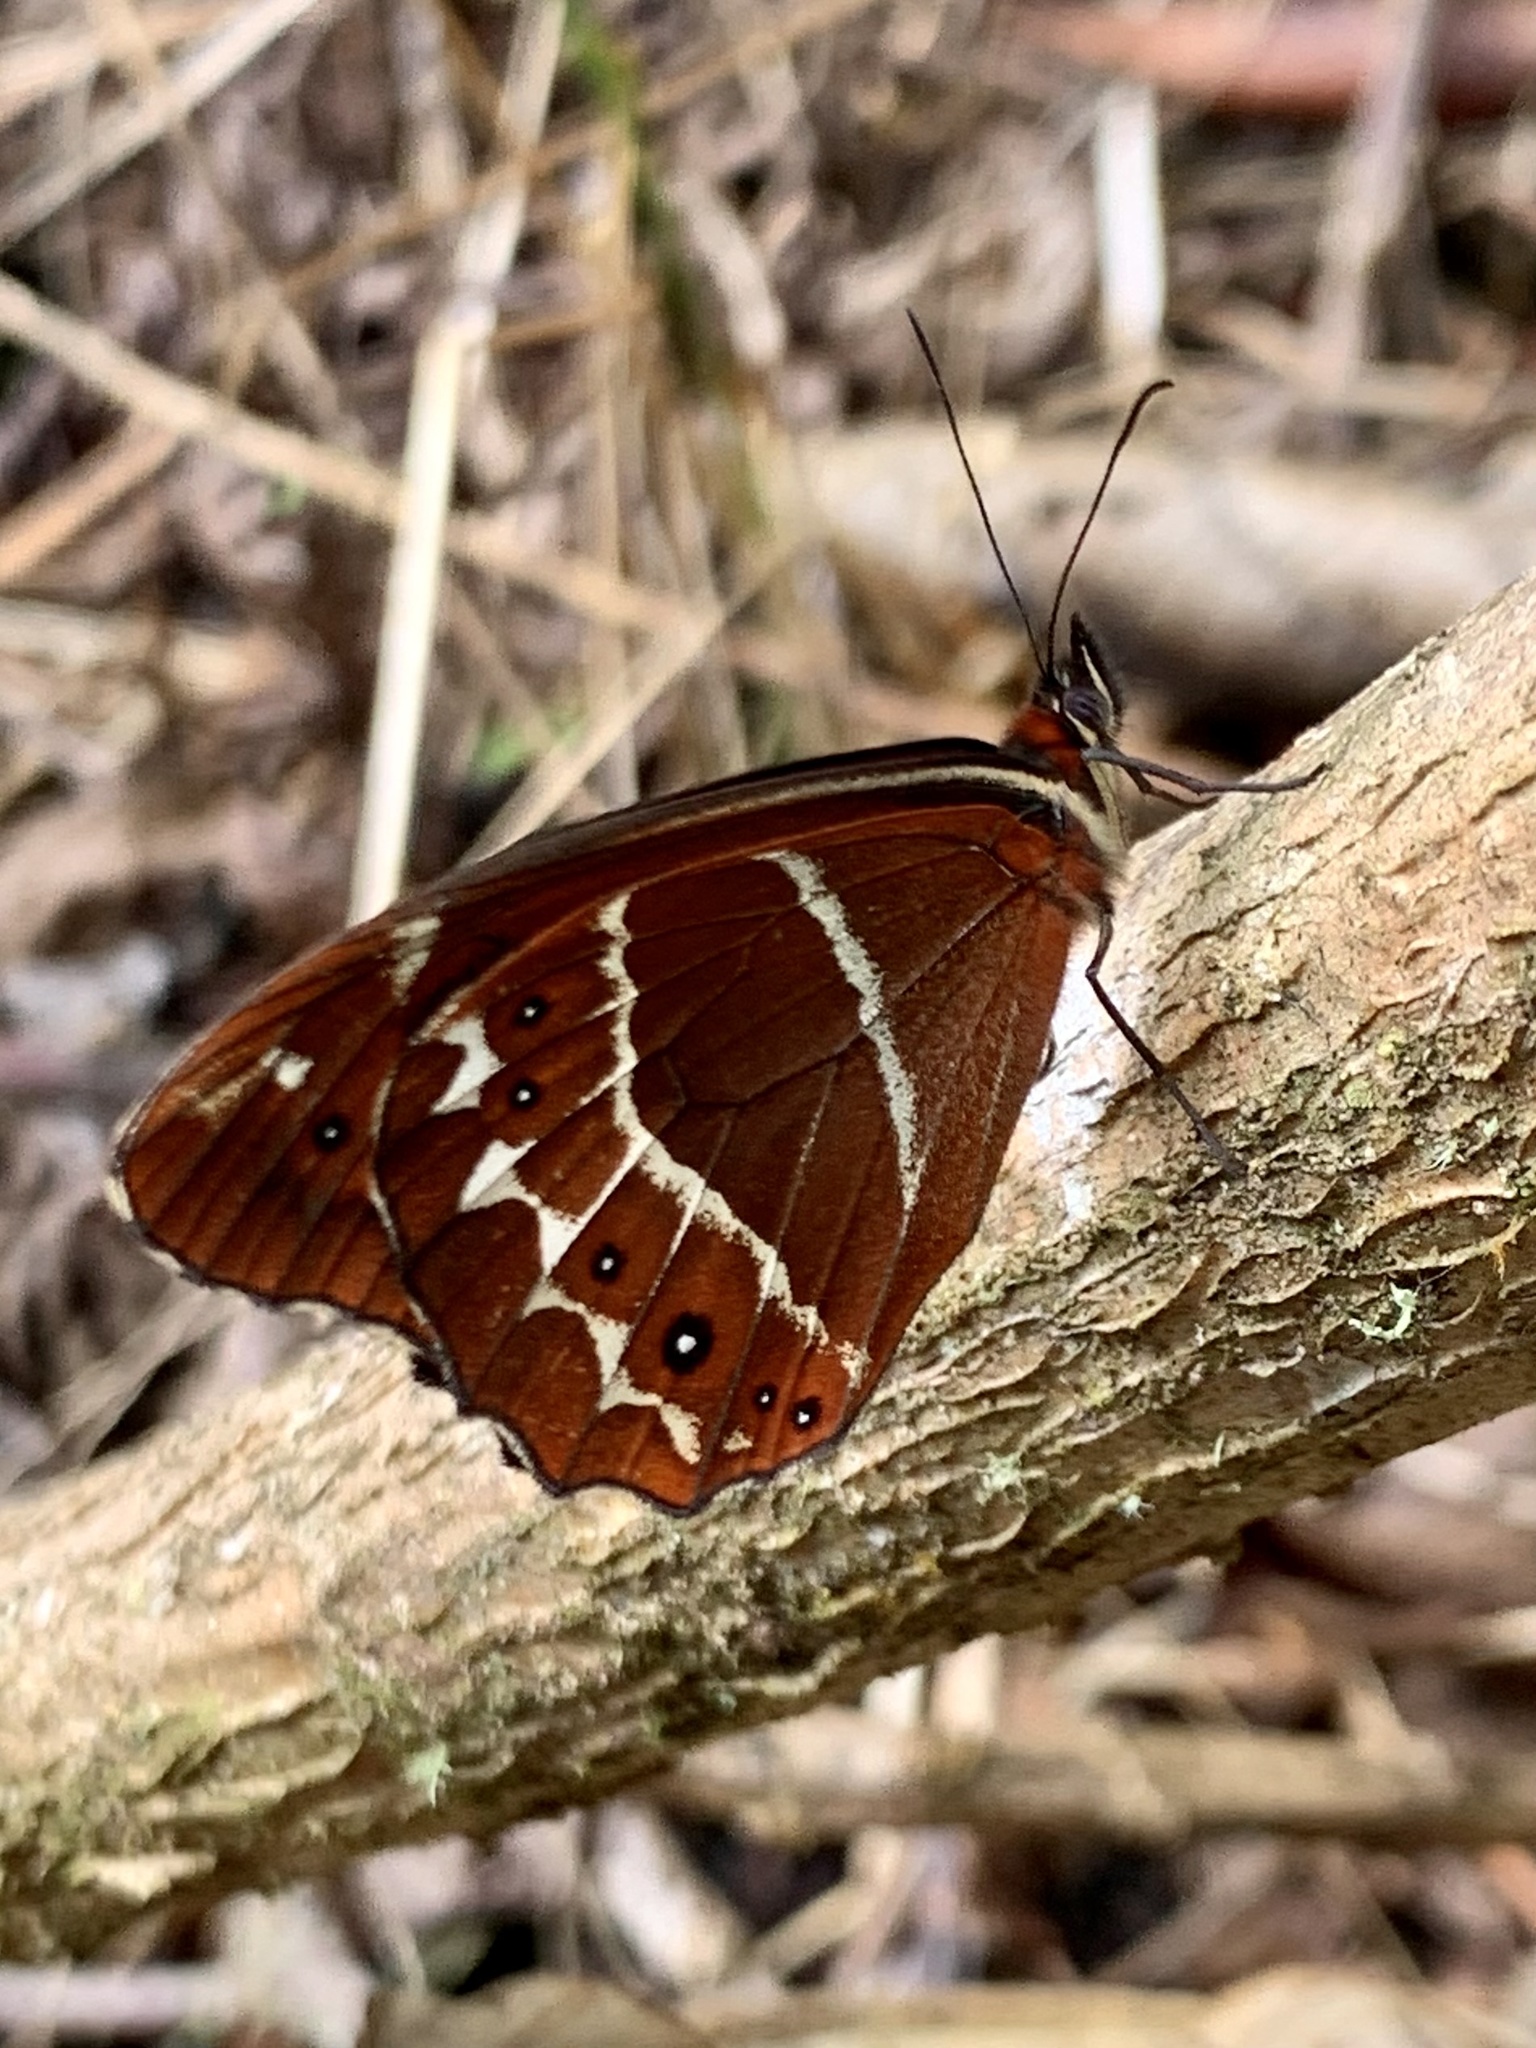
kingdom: Animalia
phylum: Arthropoda
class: Insecta
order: Lepidoptera
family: Nymphalidae
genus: Oxeoschistus
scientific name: Oxeoschistus puerta
